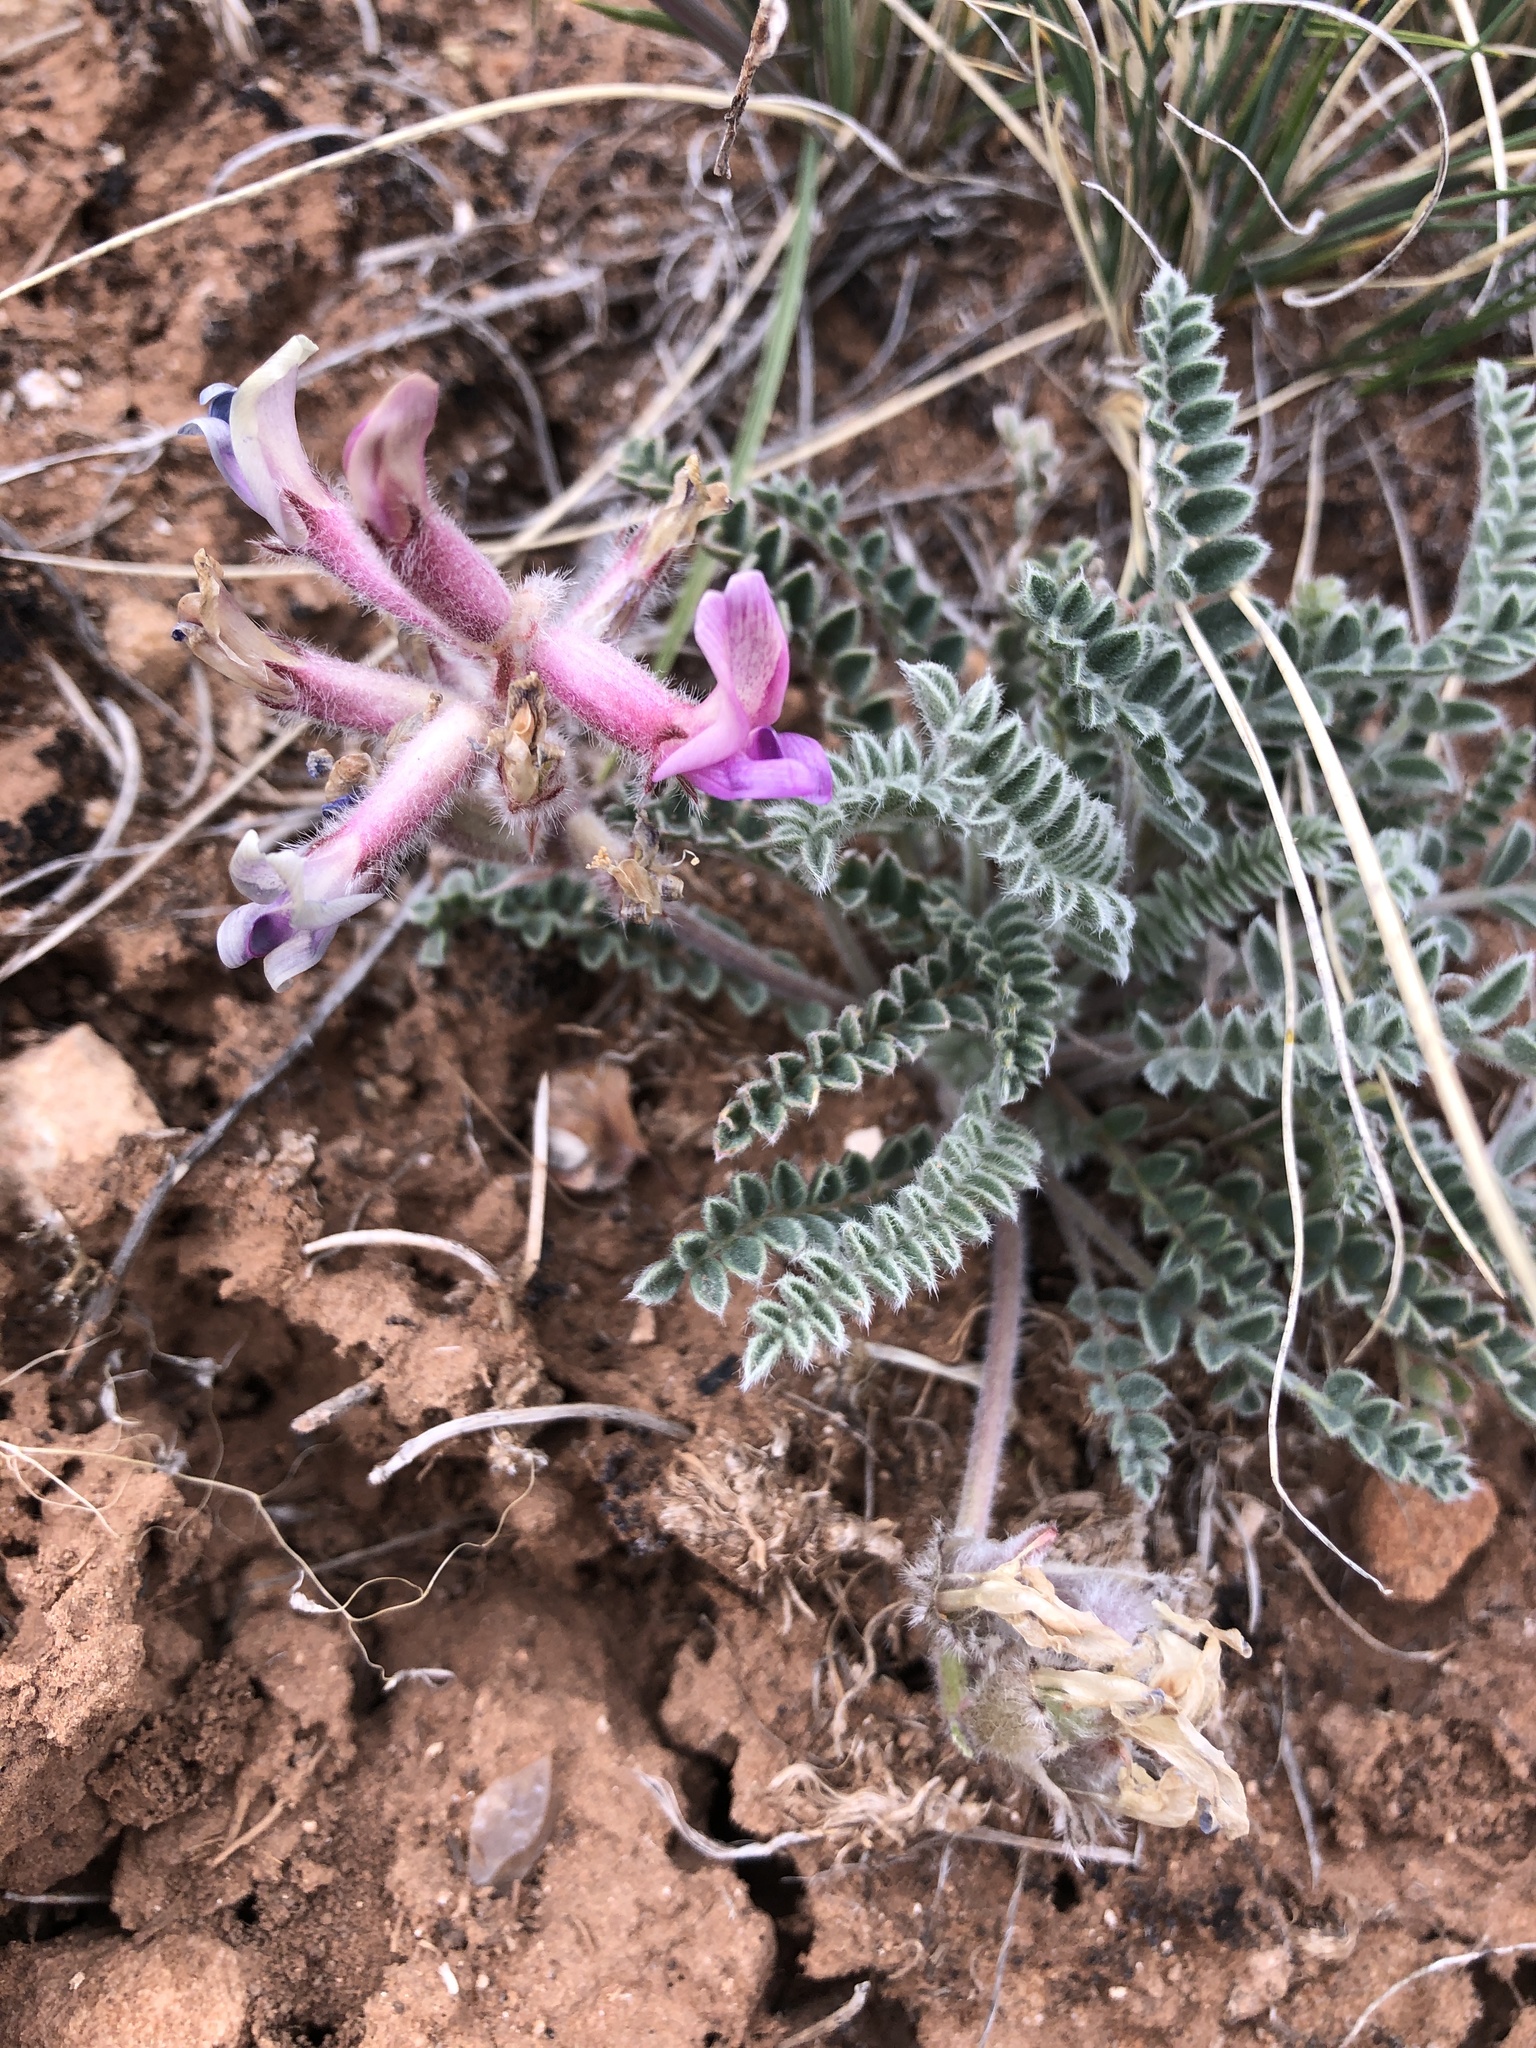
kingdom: Plantae
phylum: Tracheophyta
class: Magnoliopsida
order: Fabales
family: Fabaceae
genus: Astragalus
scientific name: Astragalus mollissimus
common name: Woolly locoweed
